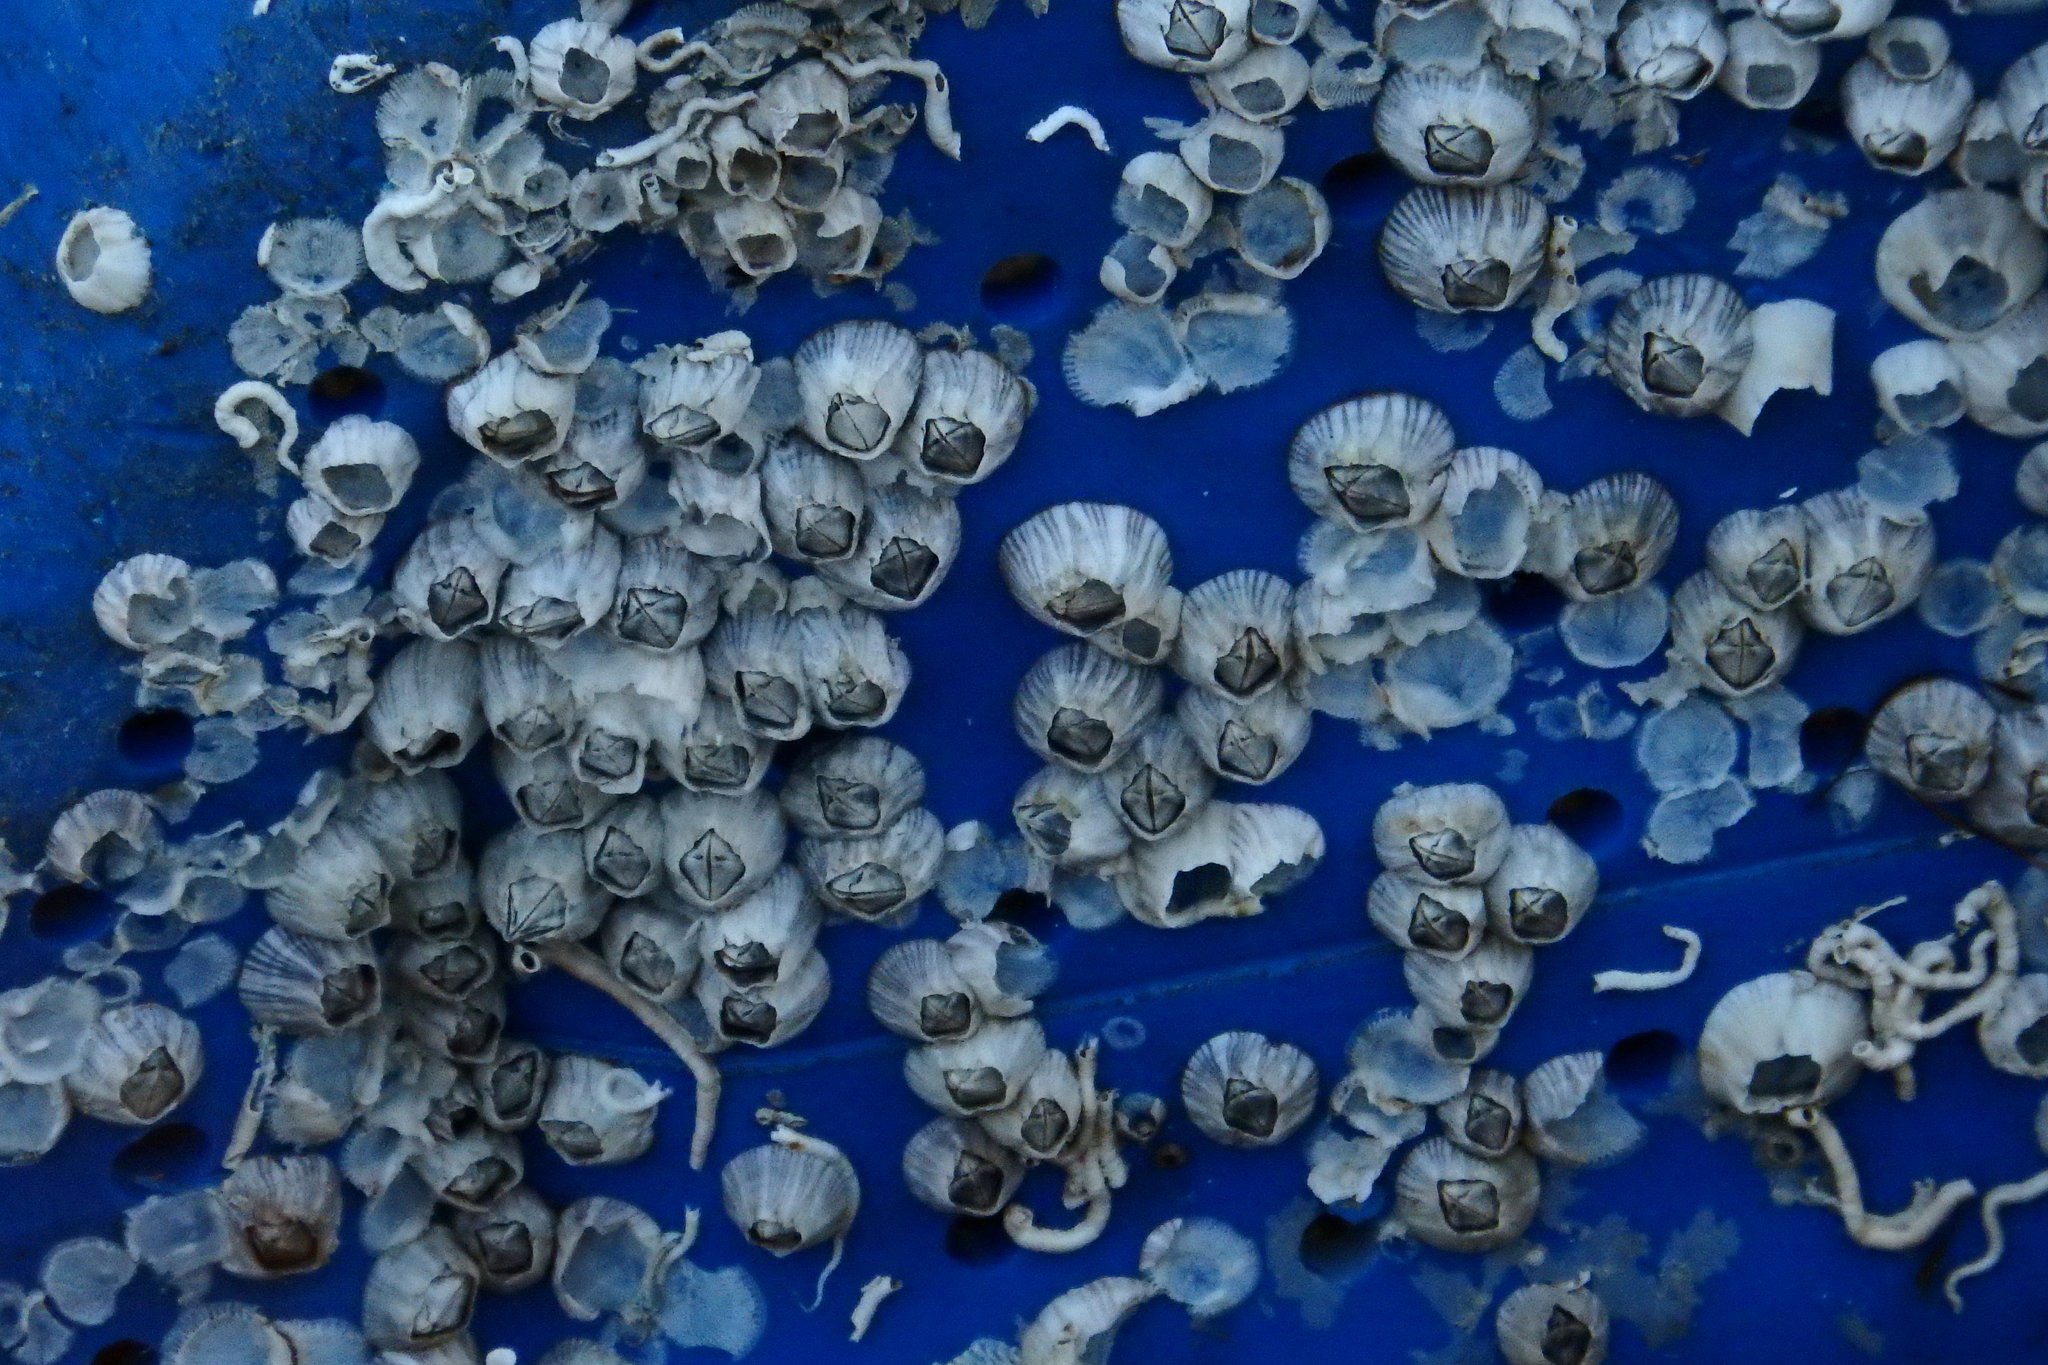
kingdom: Animalia
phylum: Arthropoda
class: Maxillopoda
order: Sessilia
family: Balanidae
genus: Amphibalanus
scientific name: Amphibalanus amphitrite
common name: Striped acorn barnacle
